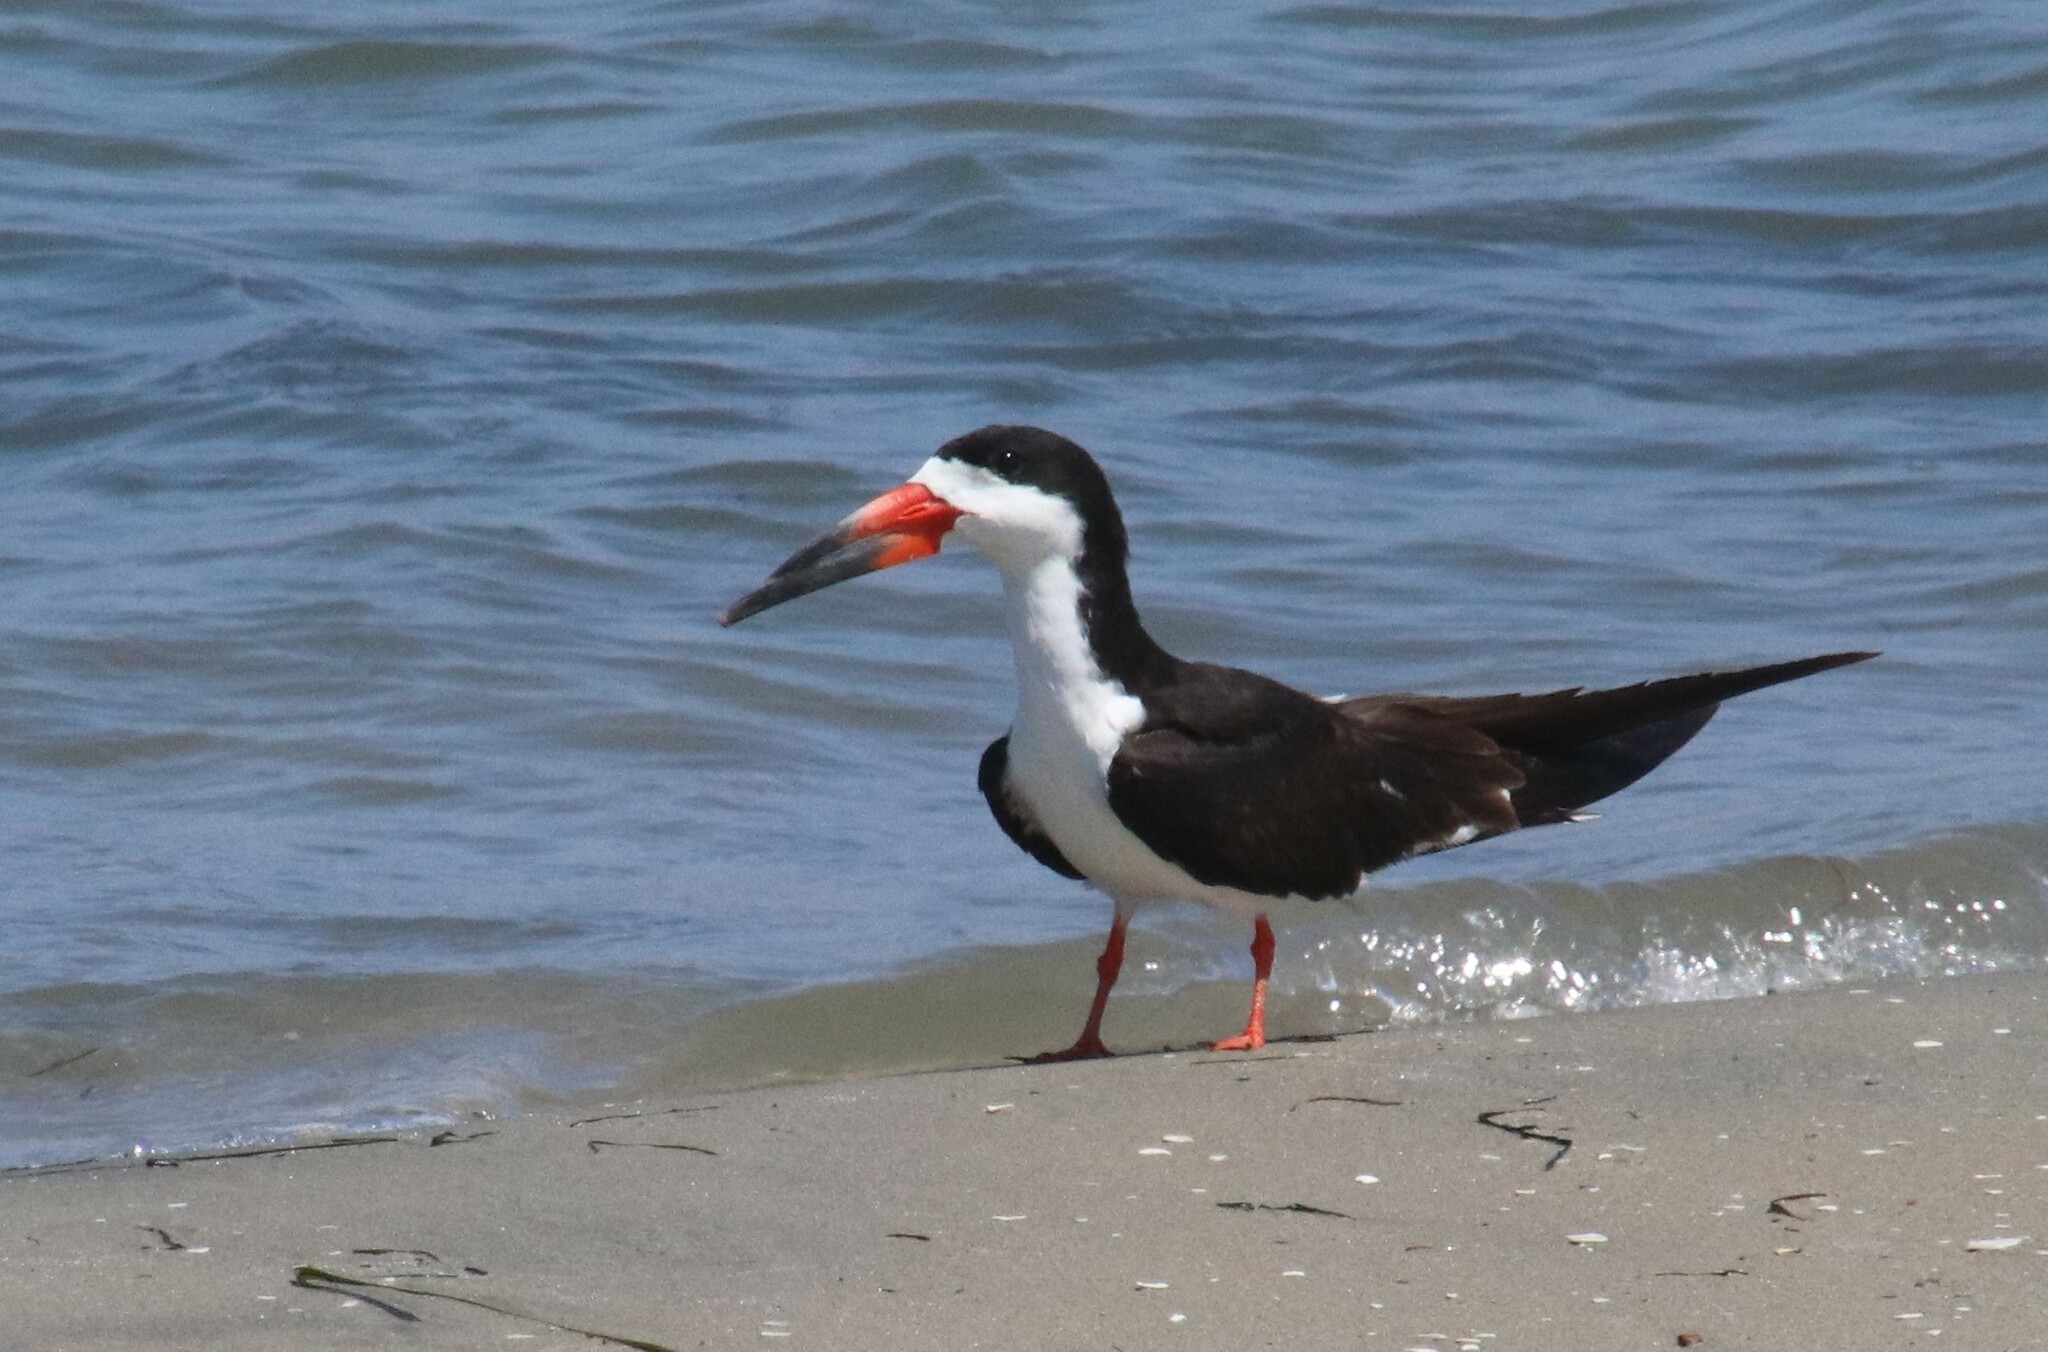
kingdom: Animalia
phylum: Chordata
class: Aves
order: Charadriiformes
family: Laridae
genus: Rynchops
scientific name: Rynchops niger
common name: Black skimmer
